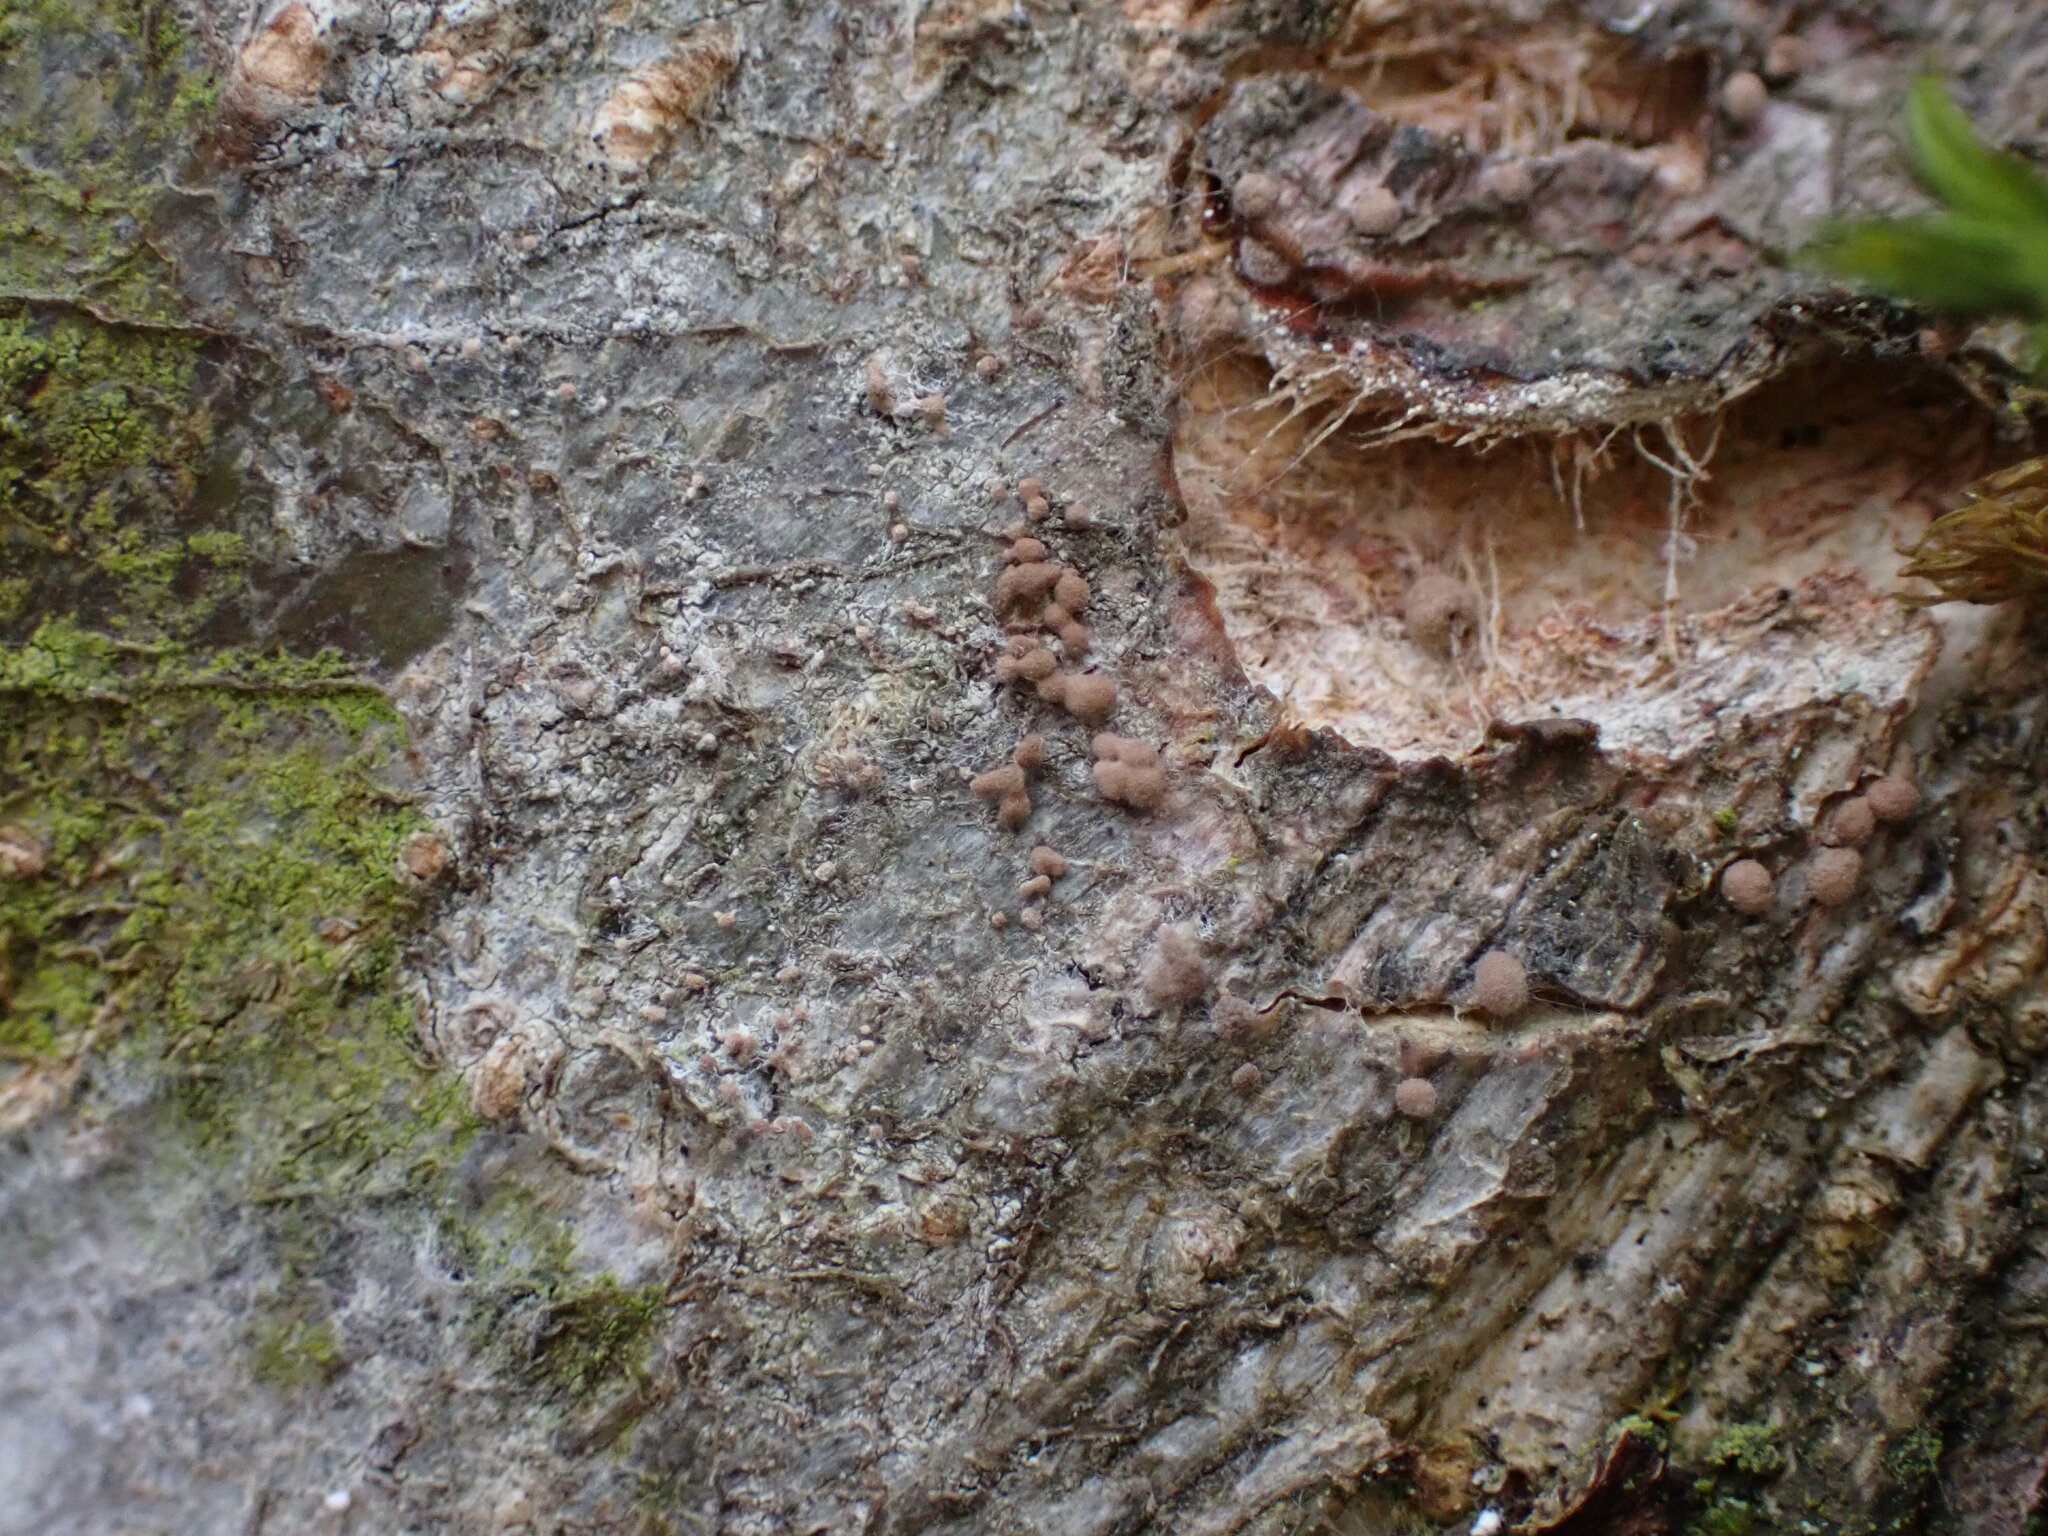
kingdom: Fungi
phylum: Basidiomycota
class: Agaricomycetes
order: Atheliales
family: Atheliaceae
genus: Athelia
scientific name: Athelia arachnoidea
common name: Candelabra duster
